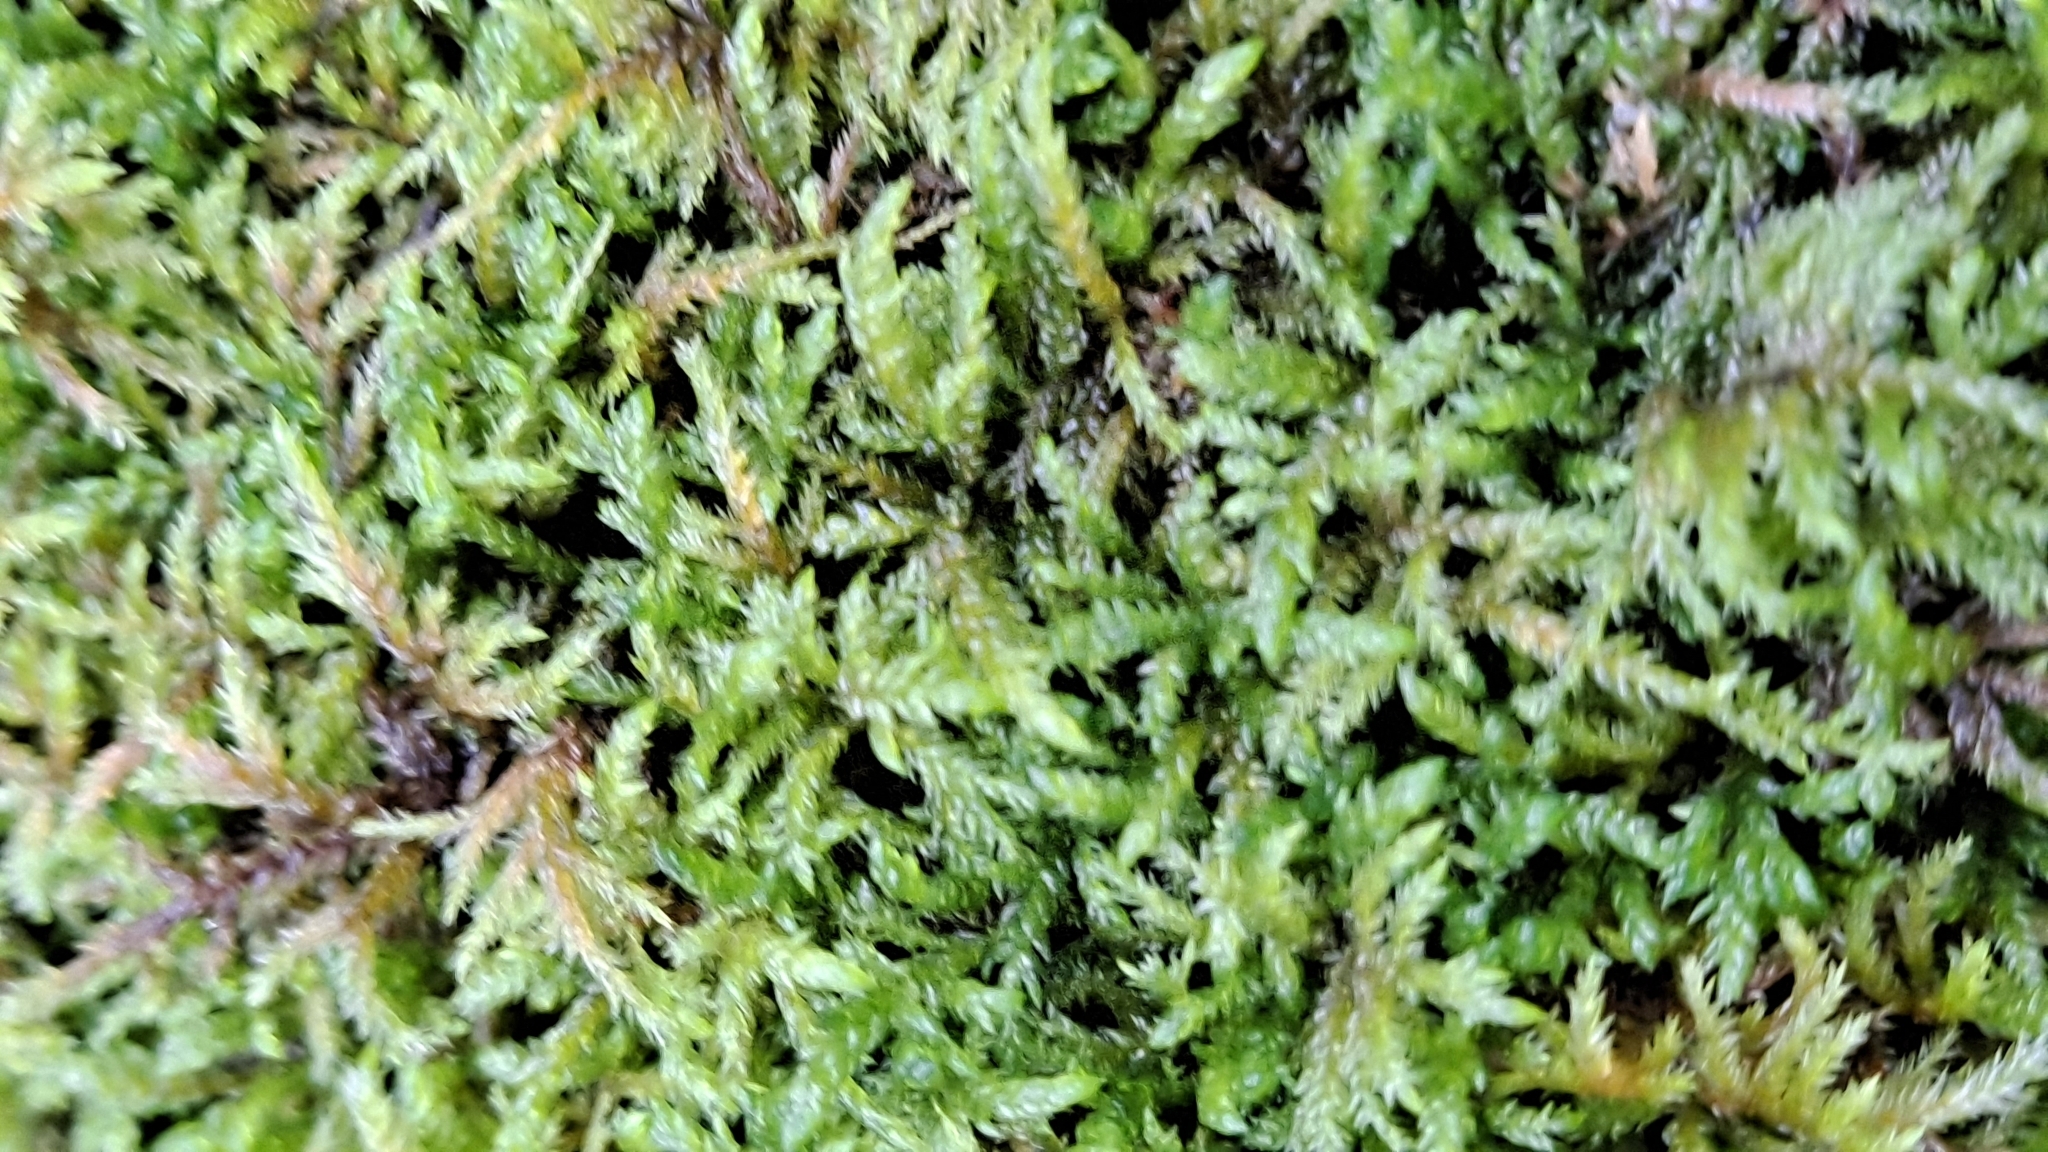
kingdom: Plantae
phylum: Bryophyta
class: Bryopsida
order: Hypnales
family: Brachytheciaceae
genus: Pseudoscleropodium
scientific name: Pseudoscleropodium purum
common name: Neat feather-moss
